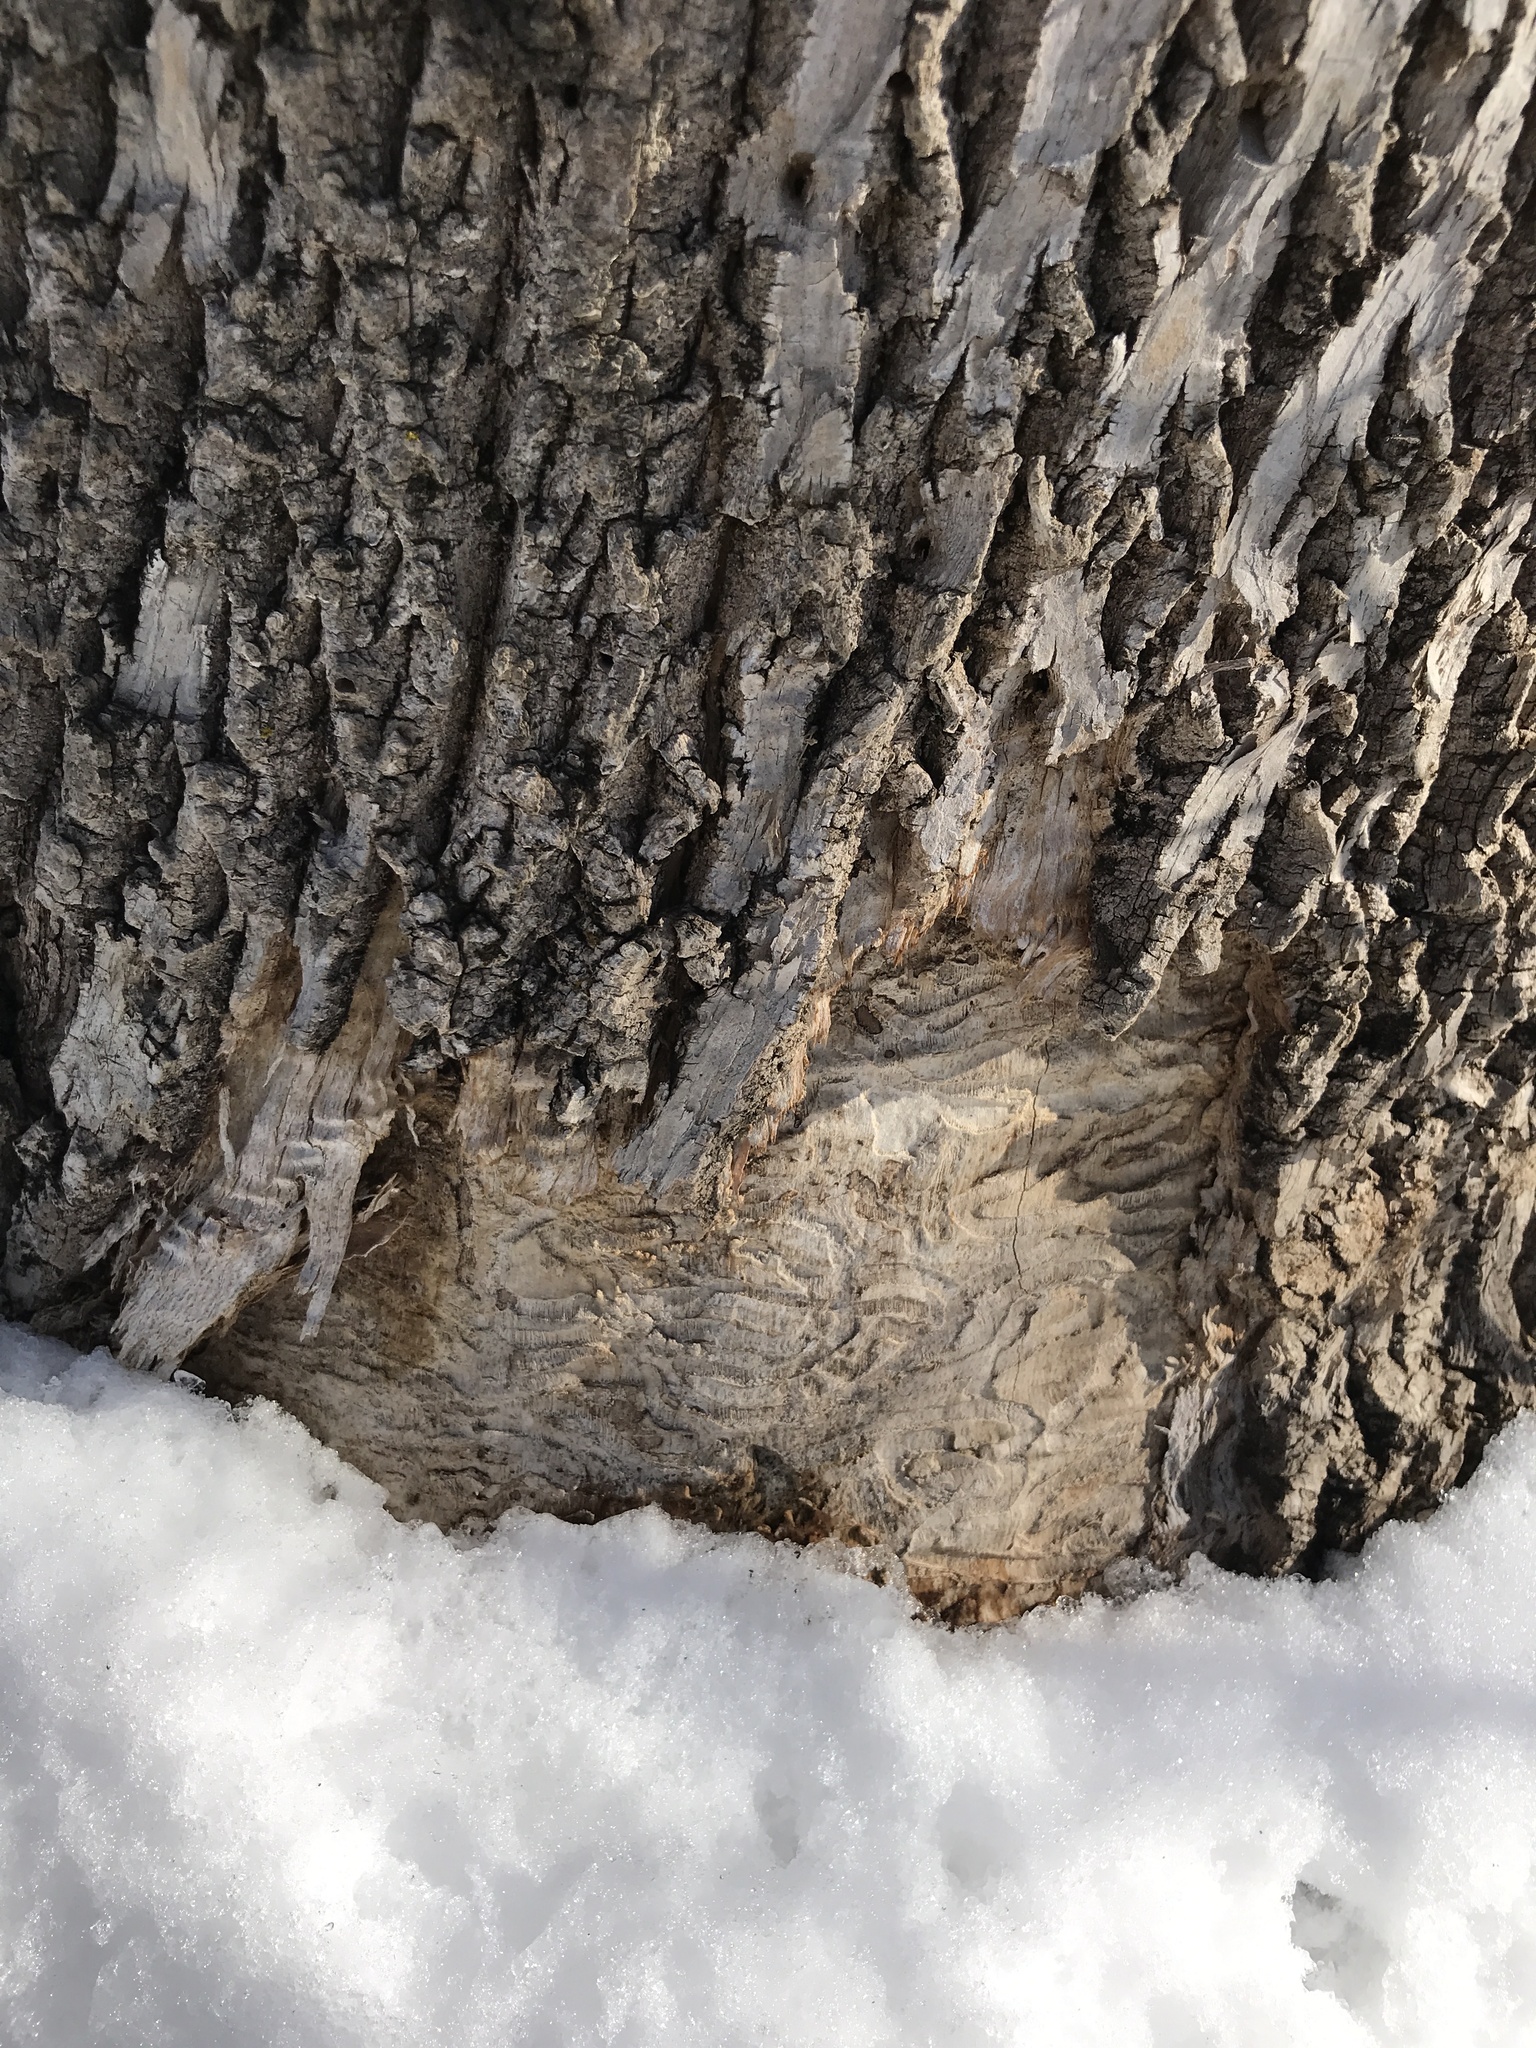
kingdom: Animalia
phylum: Arthropoda
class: Insecta
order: Coleoptera
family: Buprestidae
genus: Agrilus
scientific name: Agrilus planipennis
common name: Emerald ash borer
